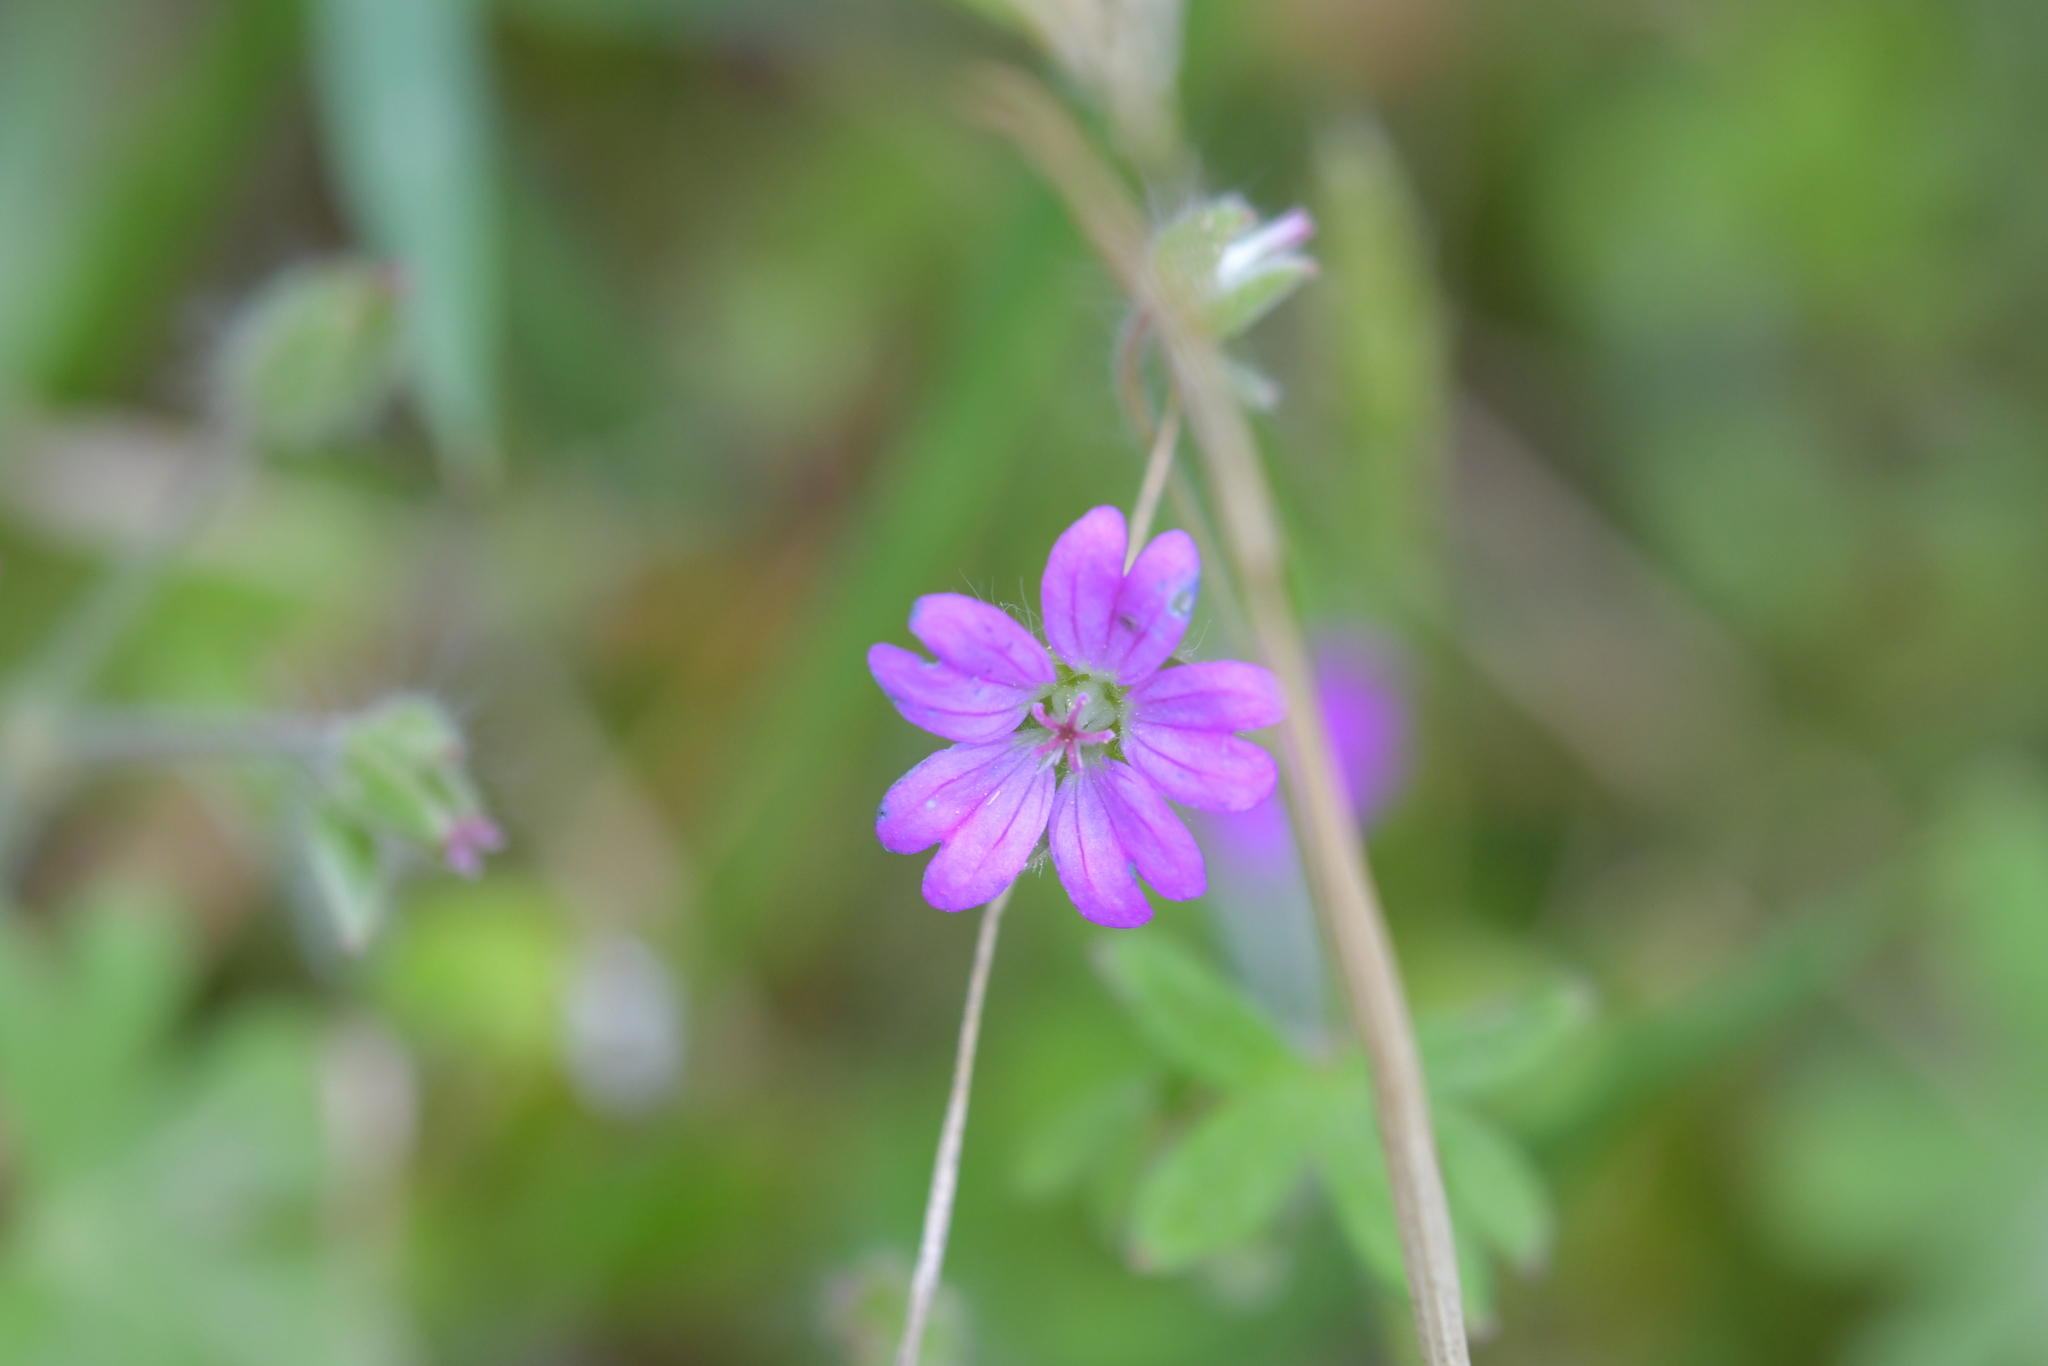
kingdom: Plantae
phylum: Tracheophyta
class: Magnoliopsida
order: Geraniales
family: Geraniaceae
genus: Geranium
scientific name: Geranium molle
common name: Dove's-foot crane's-bill
